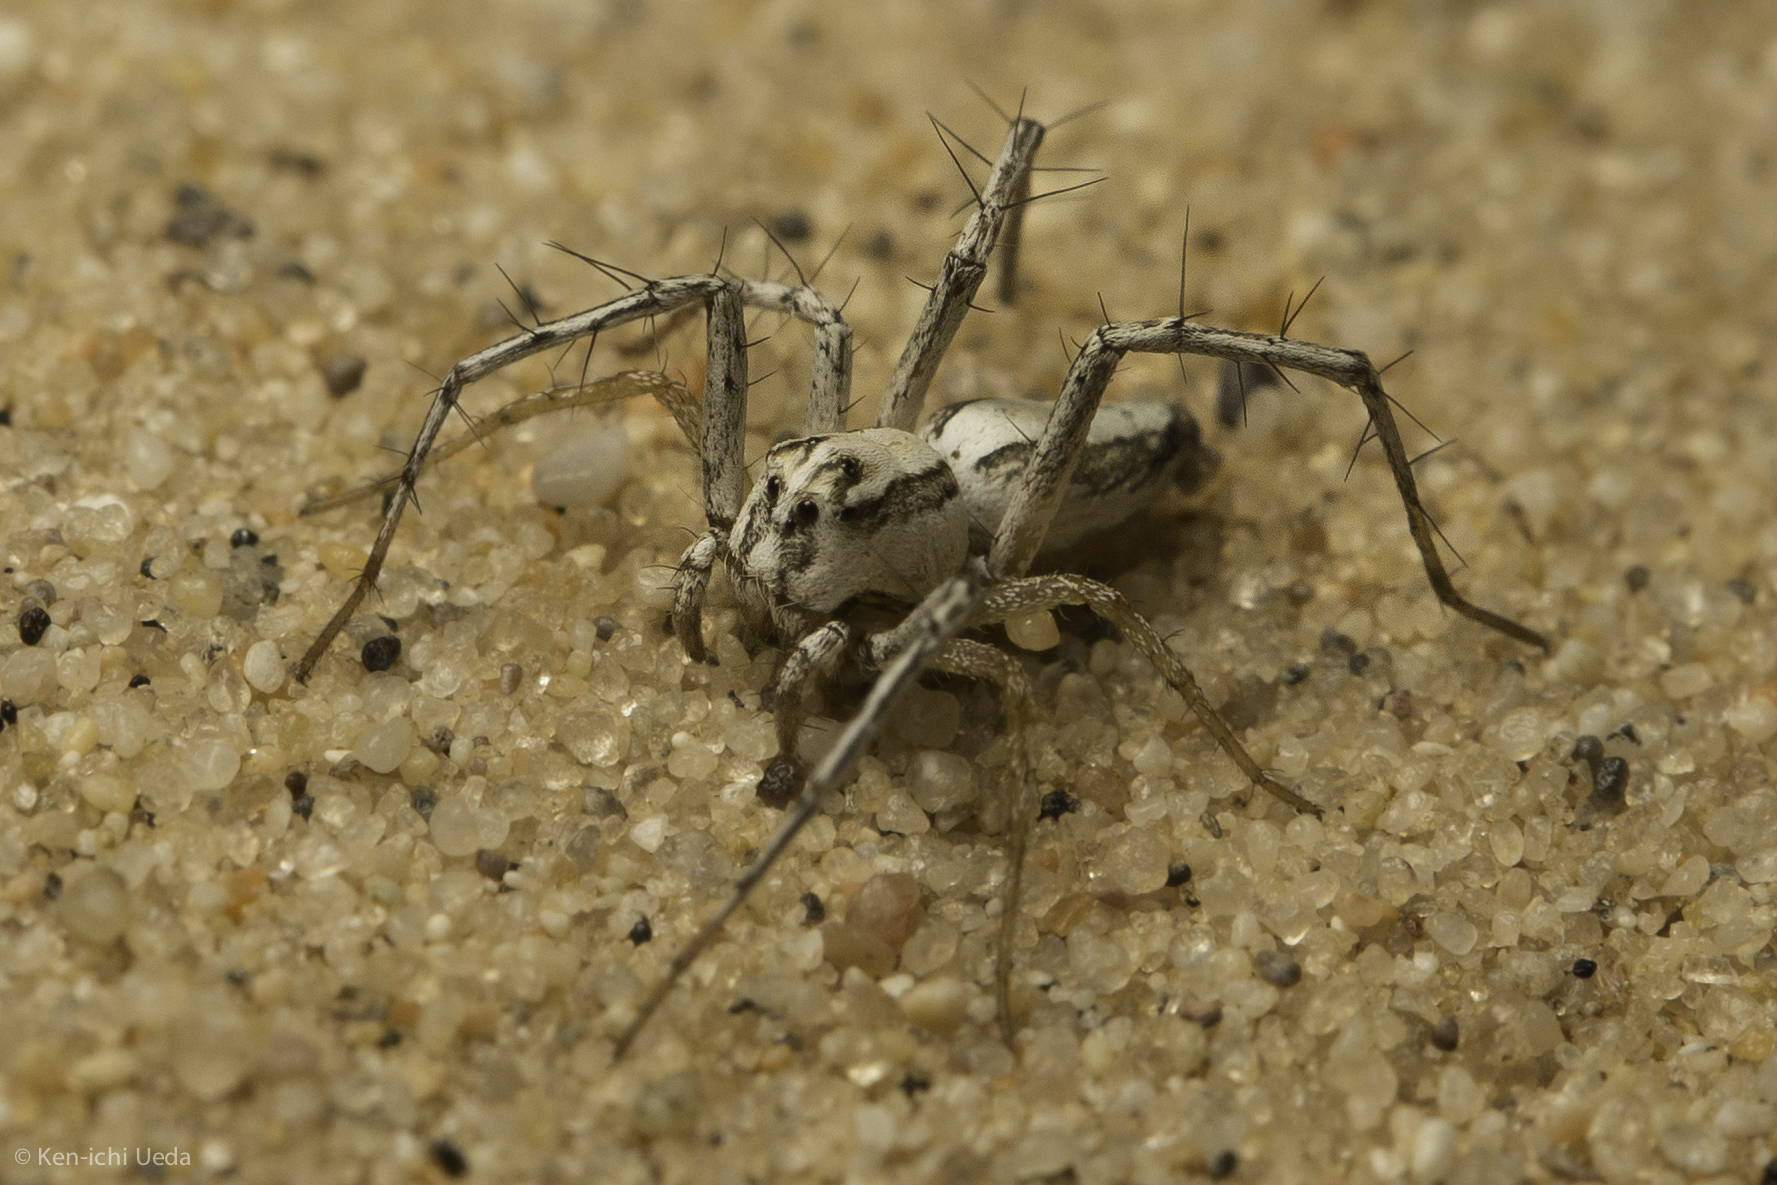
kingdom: Animalia
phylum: Arthropoda
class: Arachnida
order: Araneae
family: Oxyopidae
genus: Oxyopes
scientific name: Oxyopes tridens
